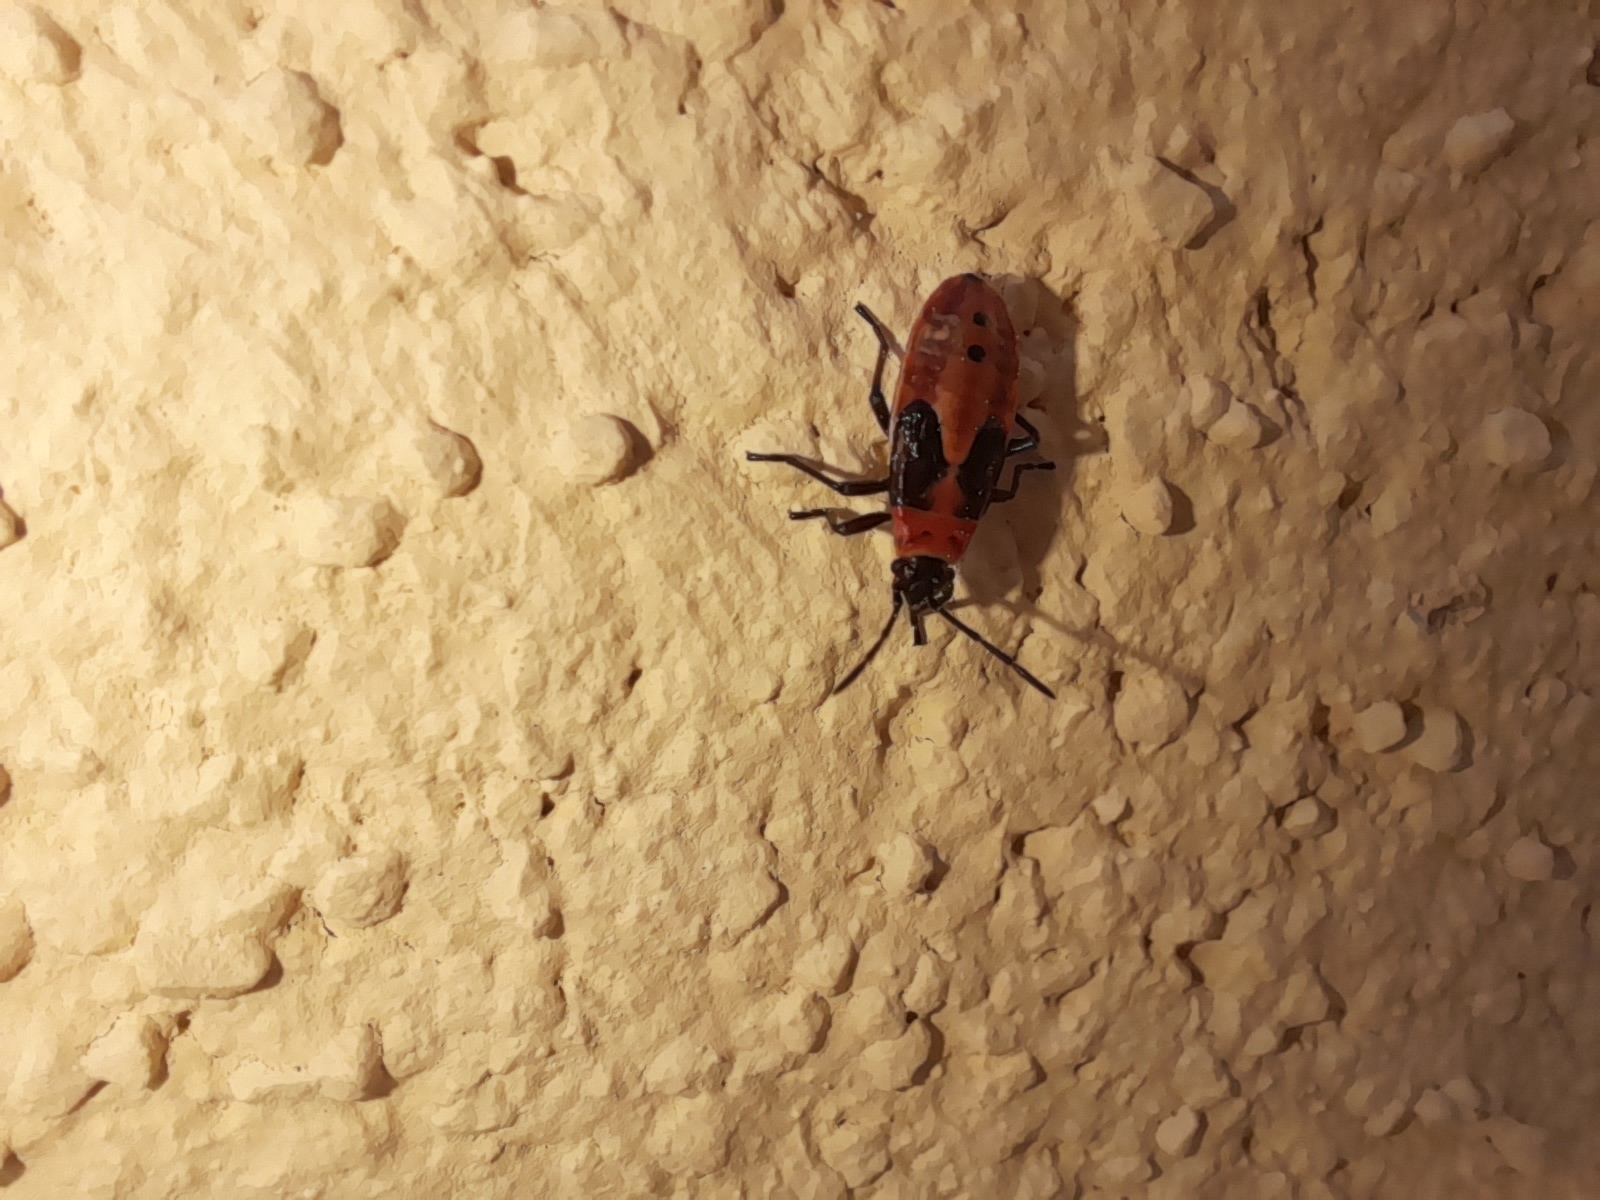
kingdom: Animalia
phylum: Arthropoda
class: Insecta
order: Hemiptera
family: Lygaeidae
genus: Lygaeus
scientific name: Lygaeus creticus
